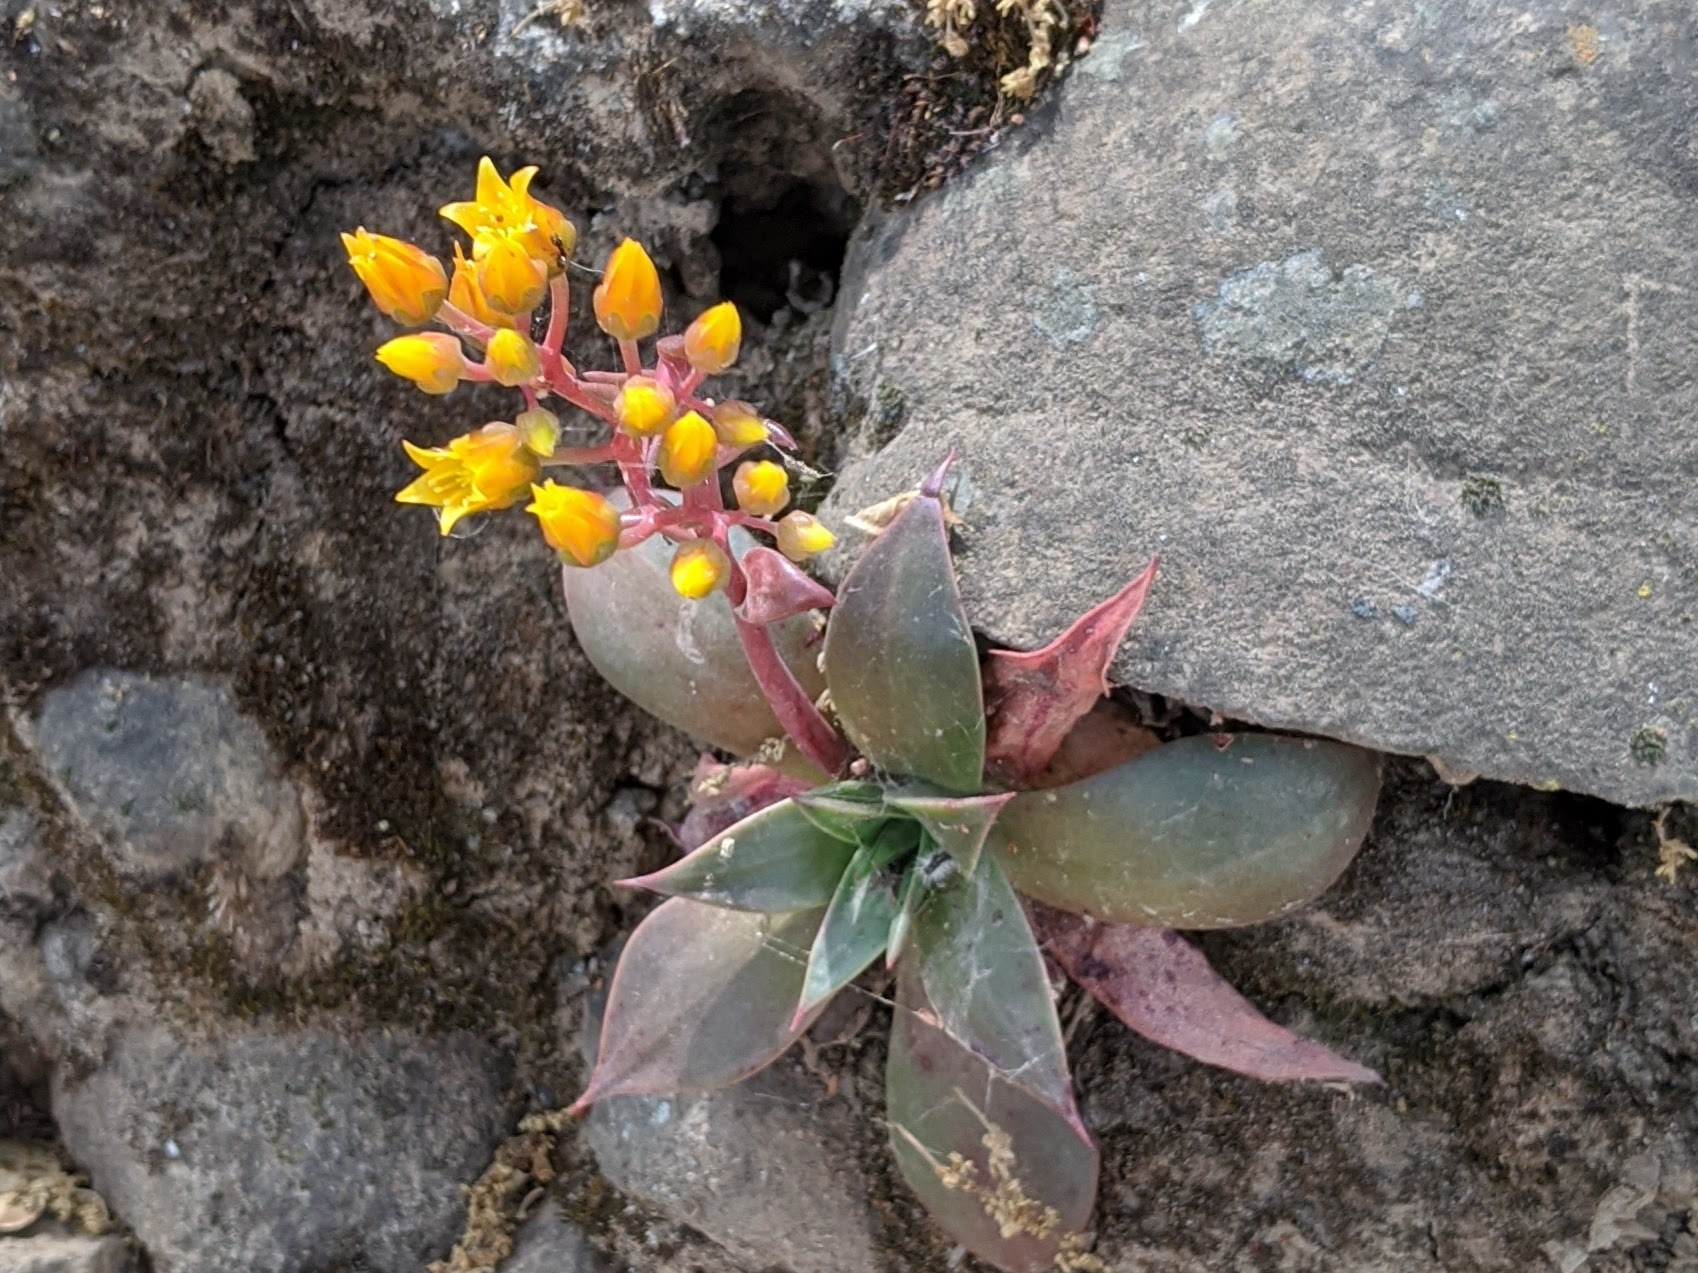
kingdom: Plantae
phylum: Tracheophyta
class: Magnoliopsida
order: Saxifragales
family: Crassulaceae
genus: Dudleya
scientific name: Dudleya cymosa
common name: Canyon dudleya
